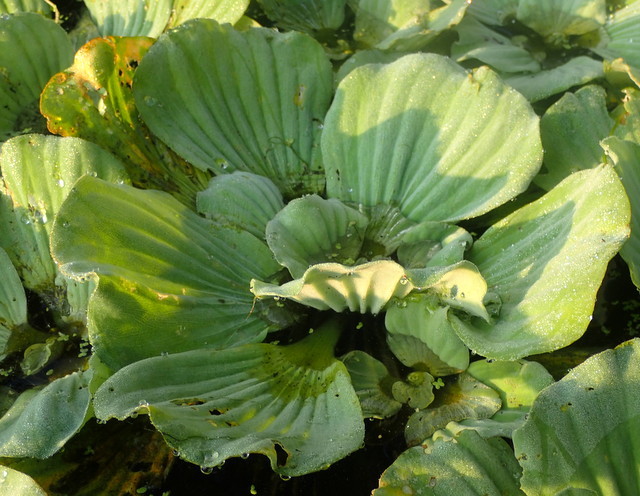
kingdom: Plantae
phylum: Tracheophyta
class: Liliopsida
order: Alismatales
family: Araceae
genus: Pistia
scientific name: Pistia stratiotes
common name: Water lettuce
